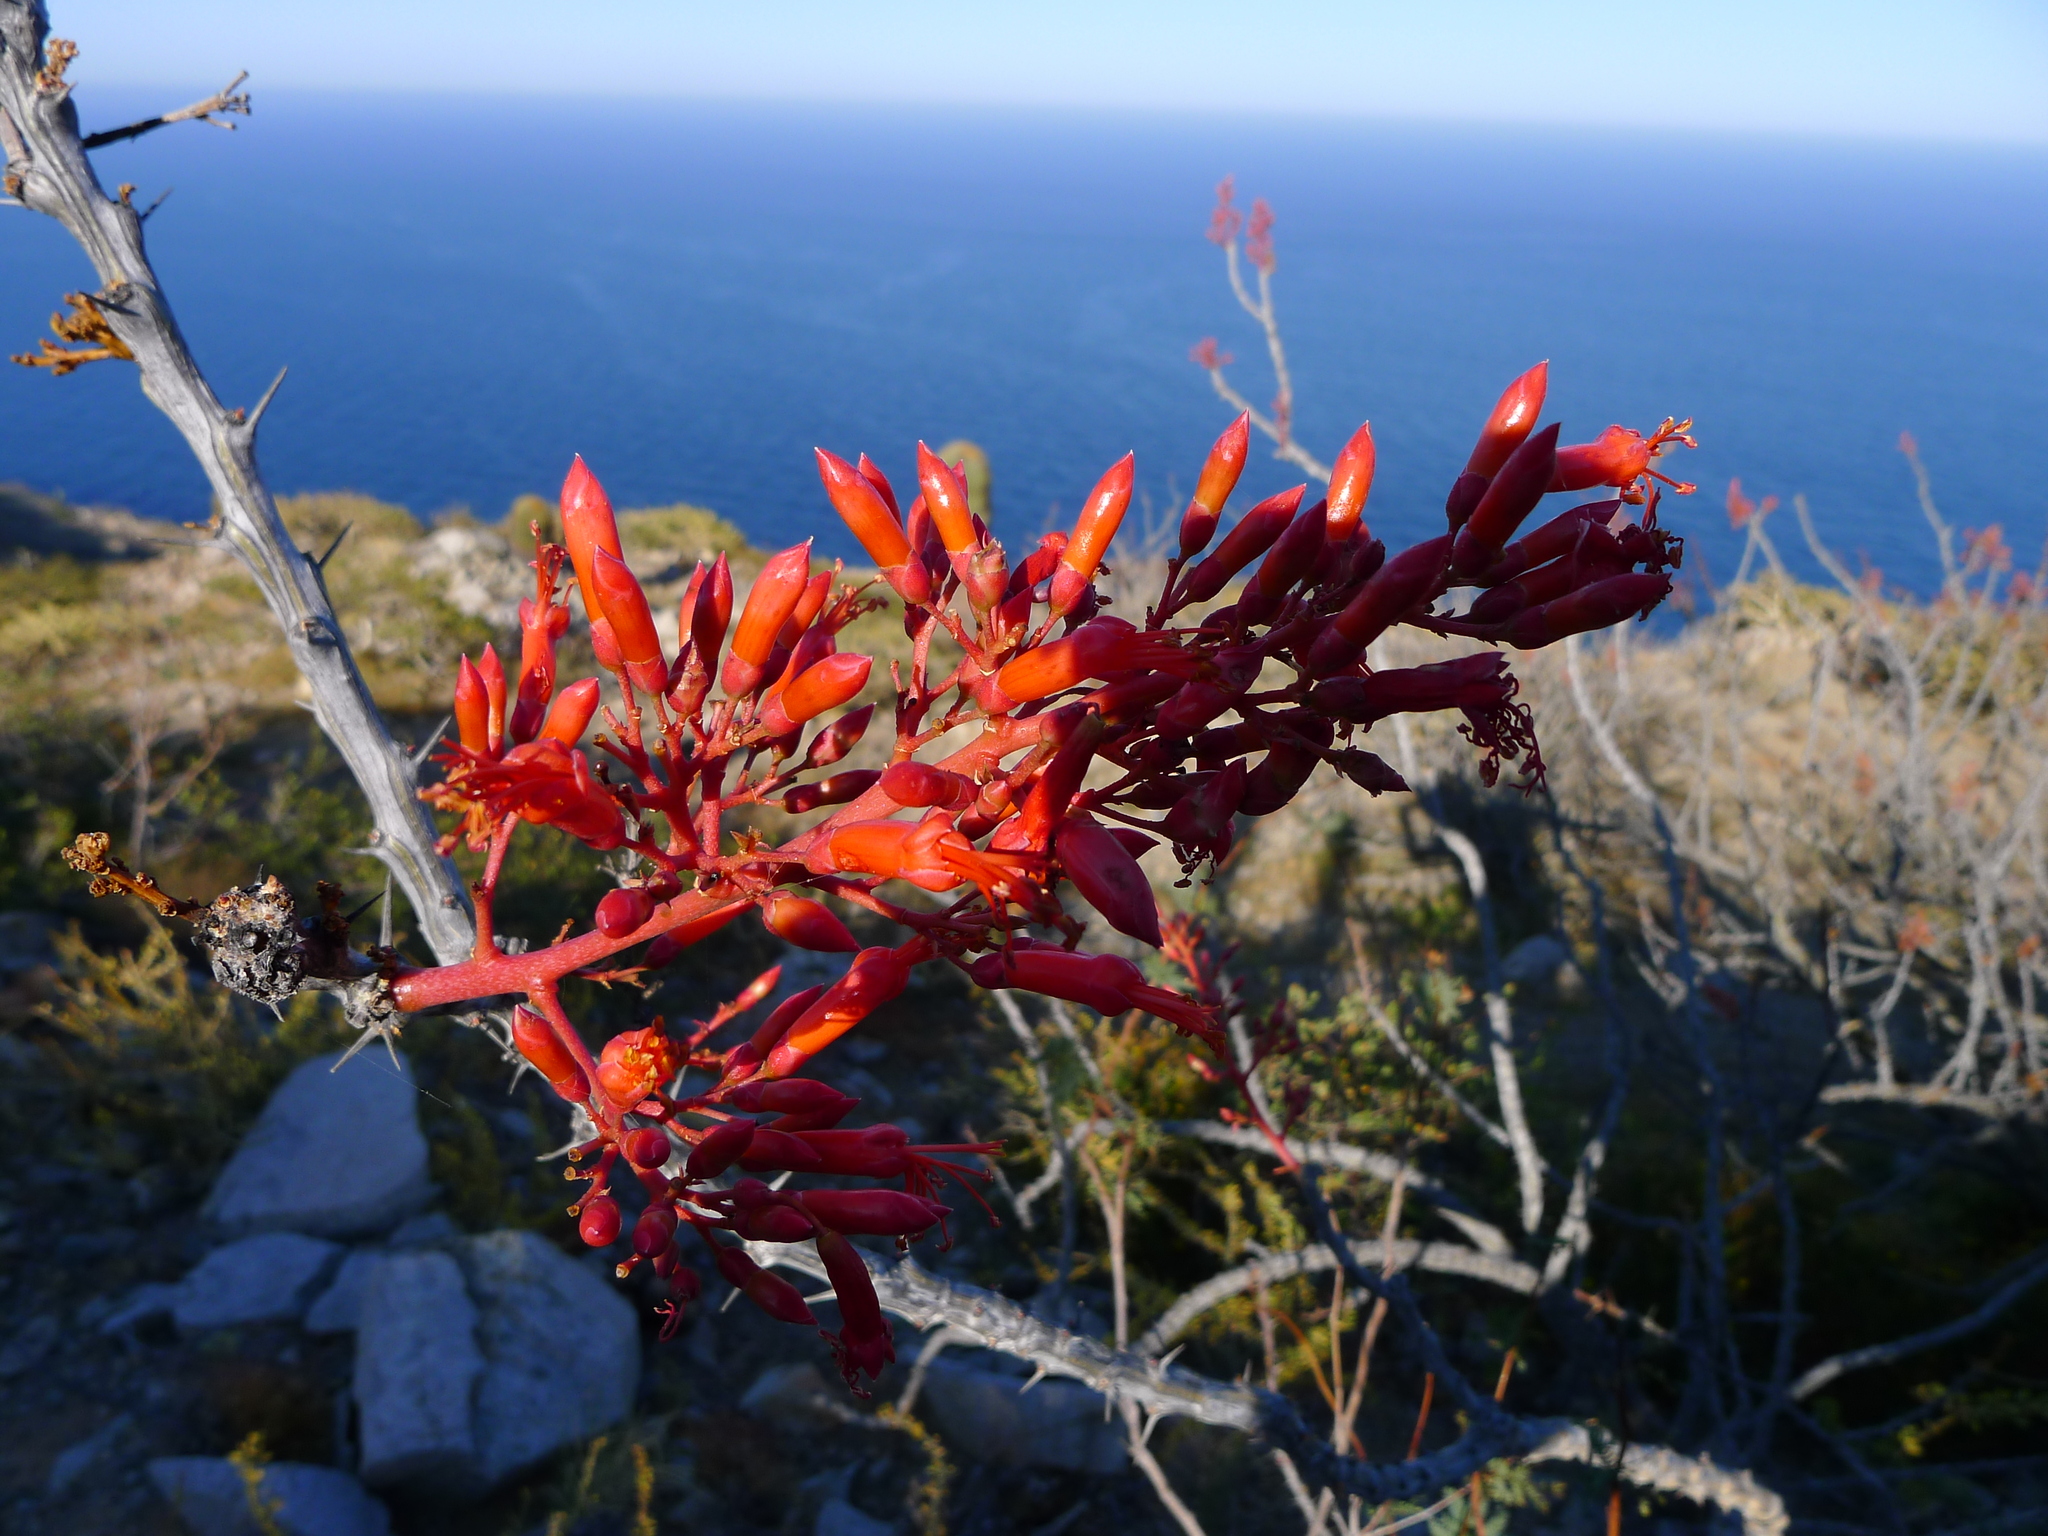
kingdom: Plantae
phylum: Tracheophyta
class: Magnoliopsida
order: Ericales
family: Fouquieriaceae
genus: Fouquieria
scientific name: Fouquieria diguetii
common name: Adam's tree
